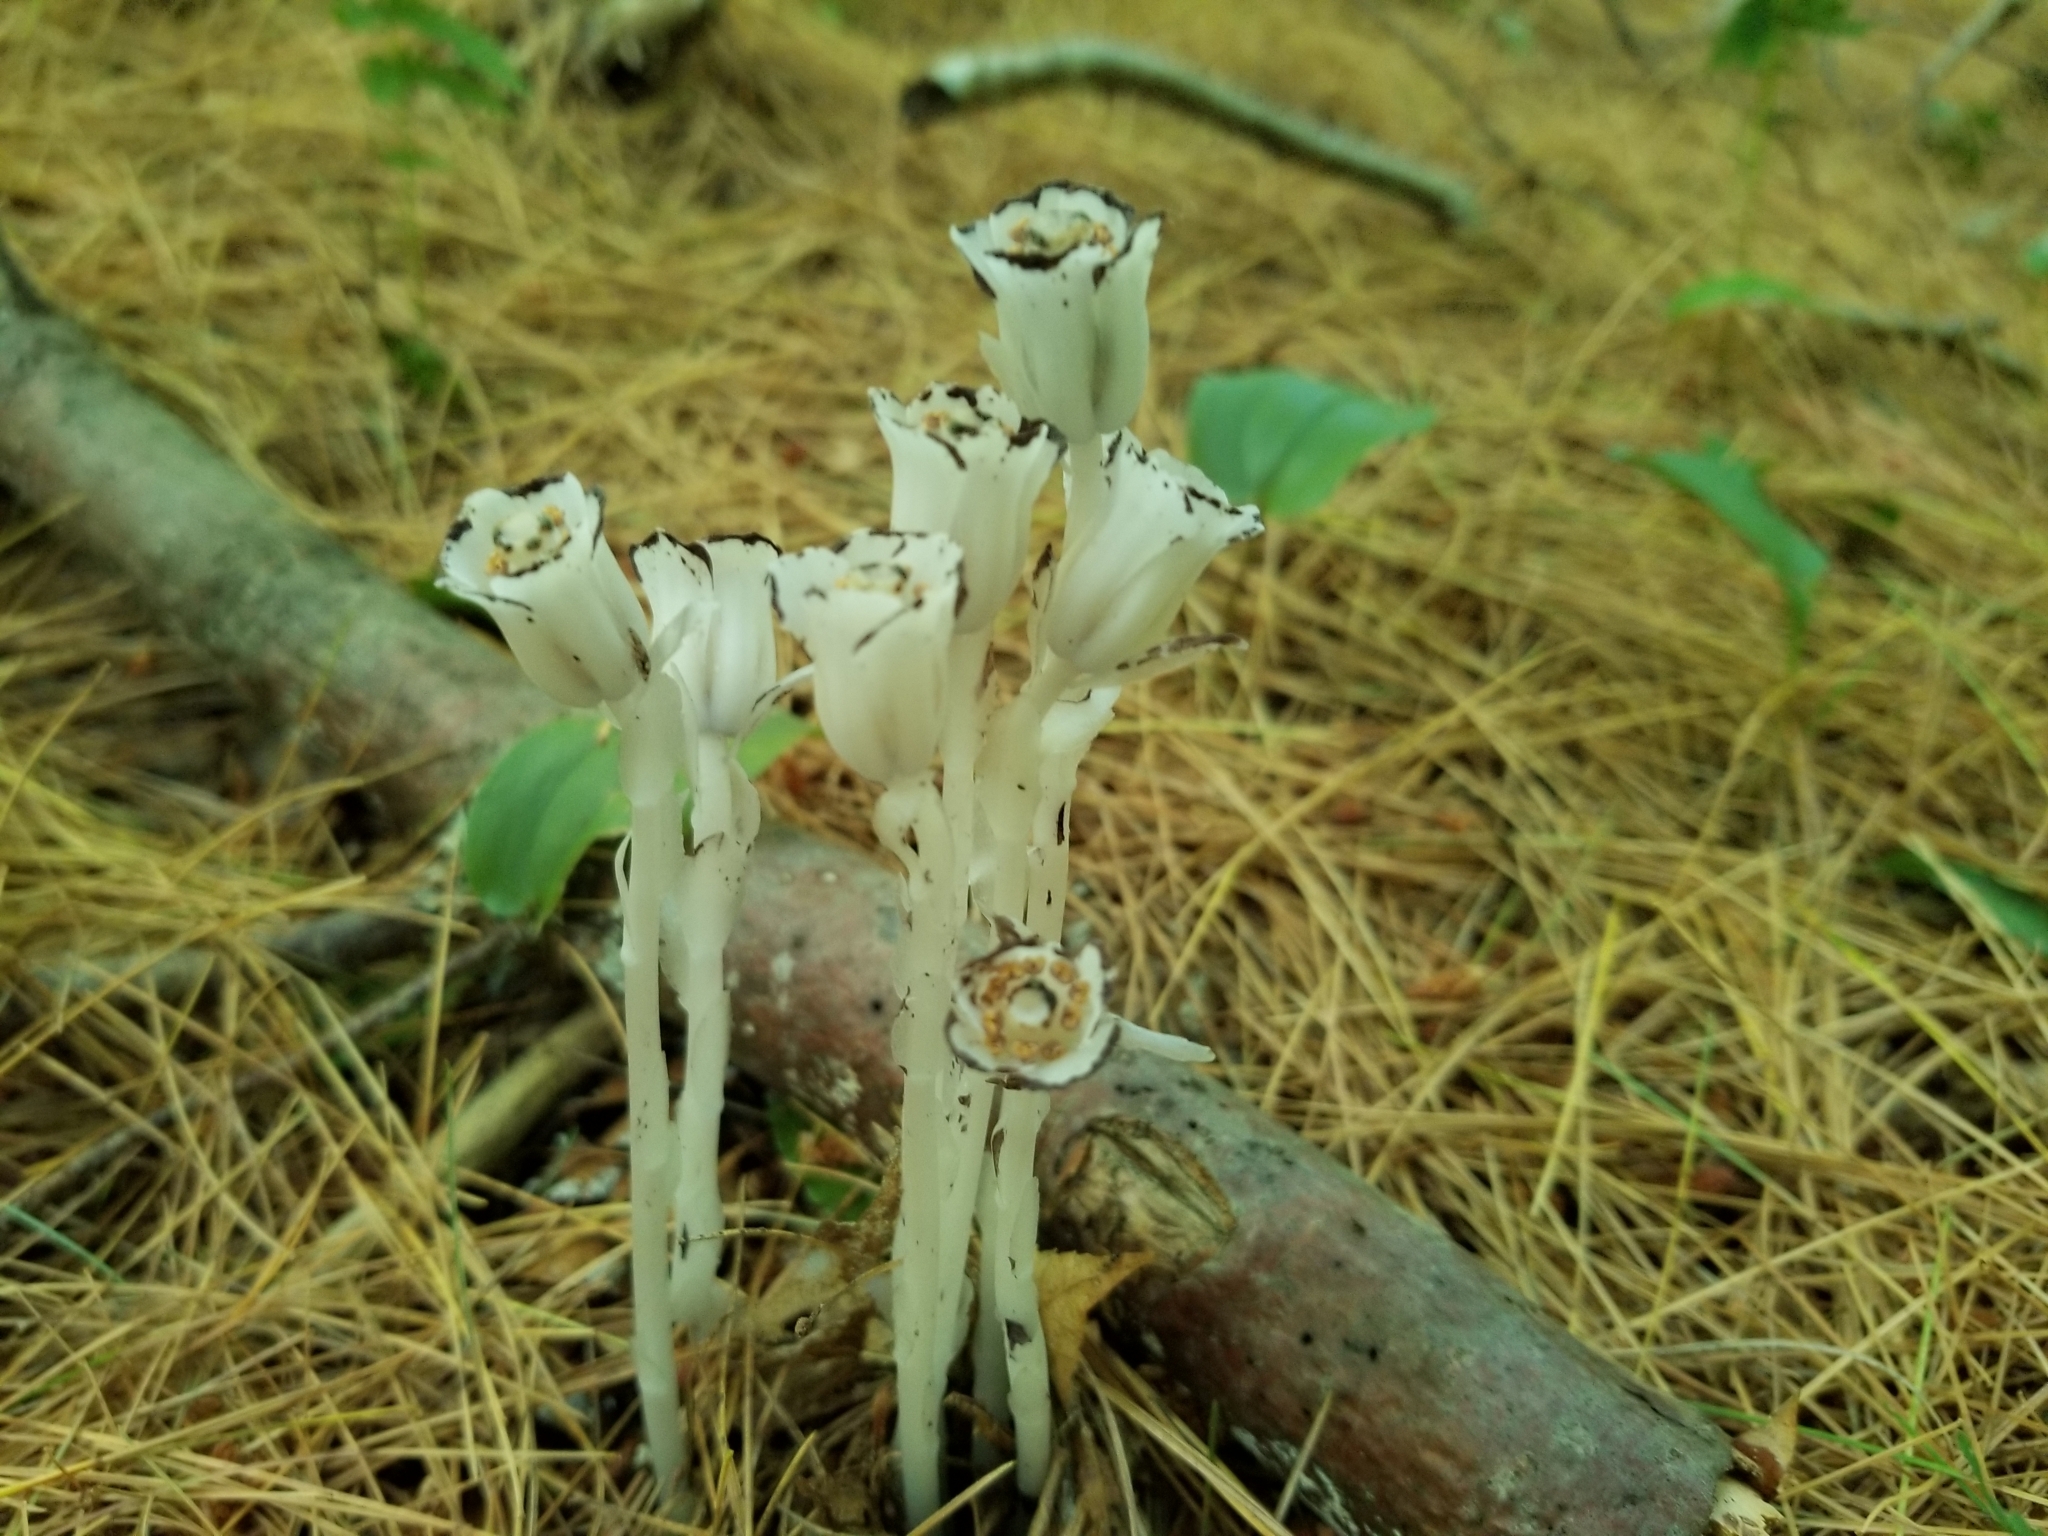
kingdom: Plantae
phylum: Tracheophyta
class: Magnoliopsida
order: Ericales
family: Ericaceae
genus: Monotropa
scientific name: Monotropa uniflora
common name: Convulsion root
